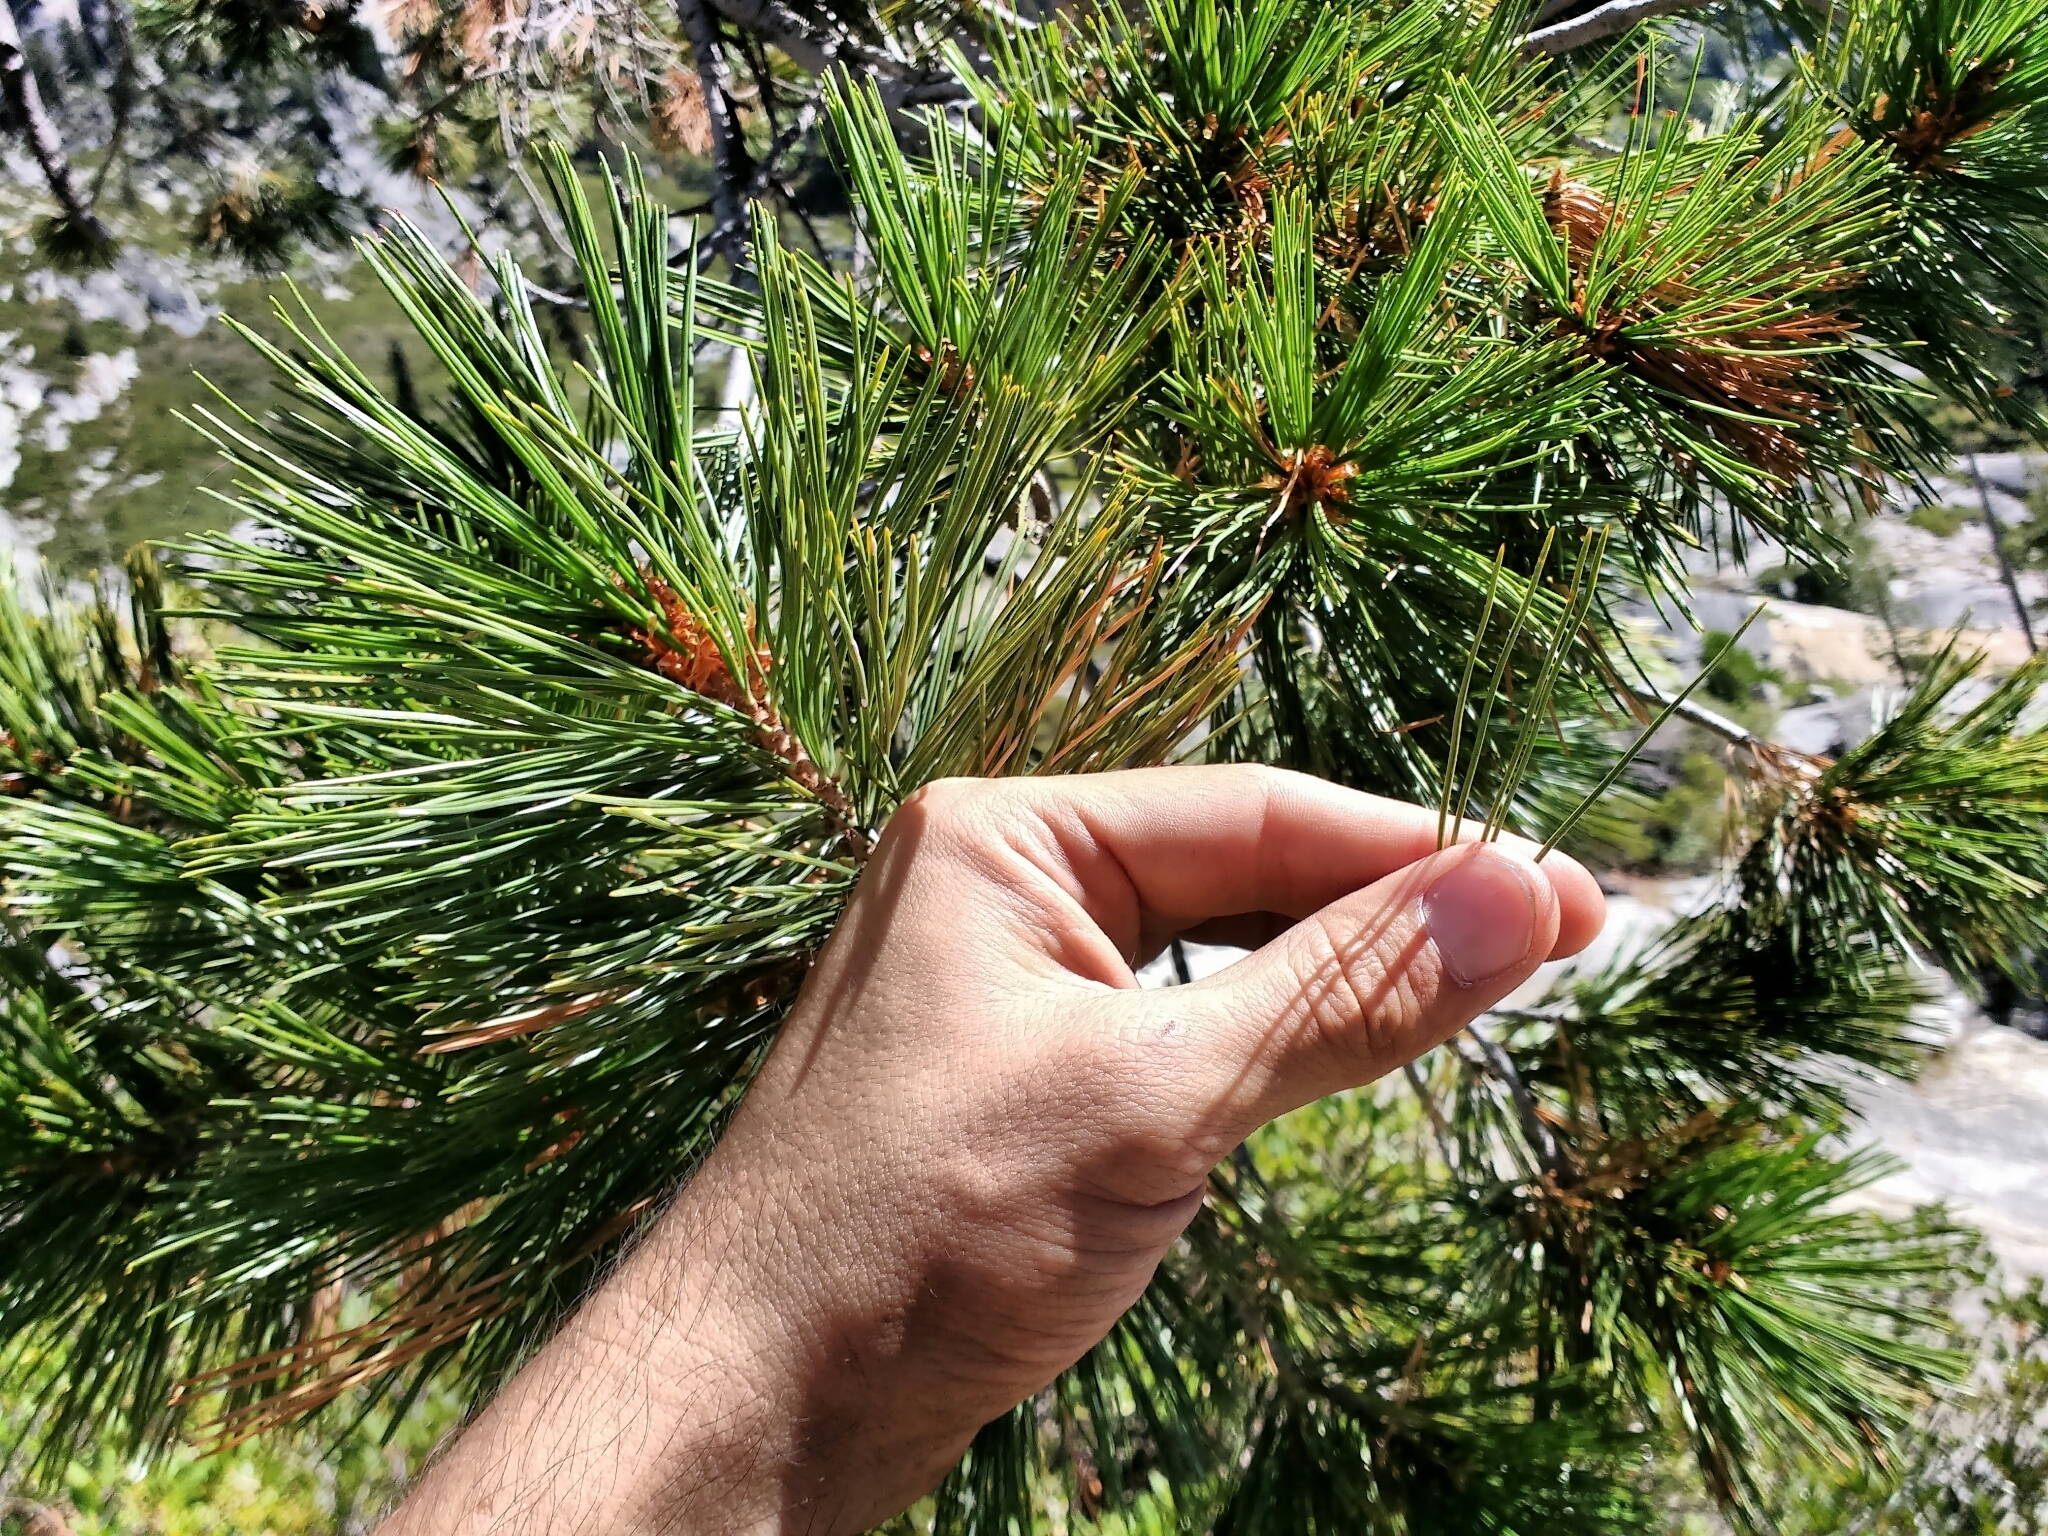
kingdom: Plantae
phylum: Tracheophyta
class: Pinopsida
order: Pinales
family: Pinaceae
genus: Pinus
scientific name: Pinus
